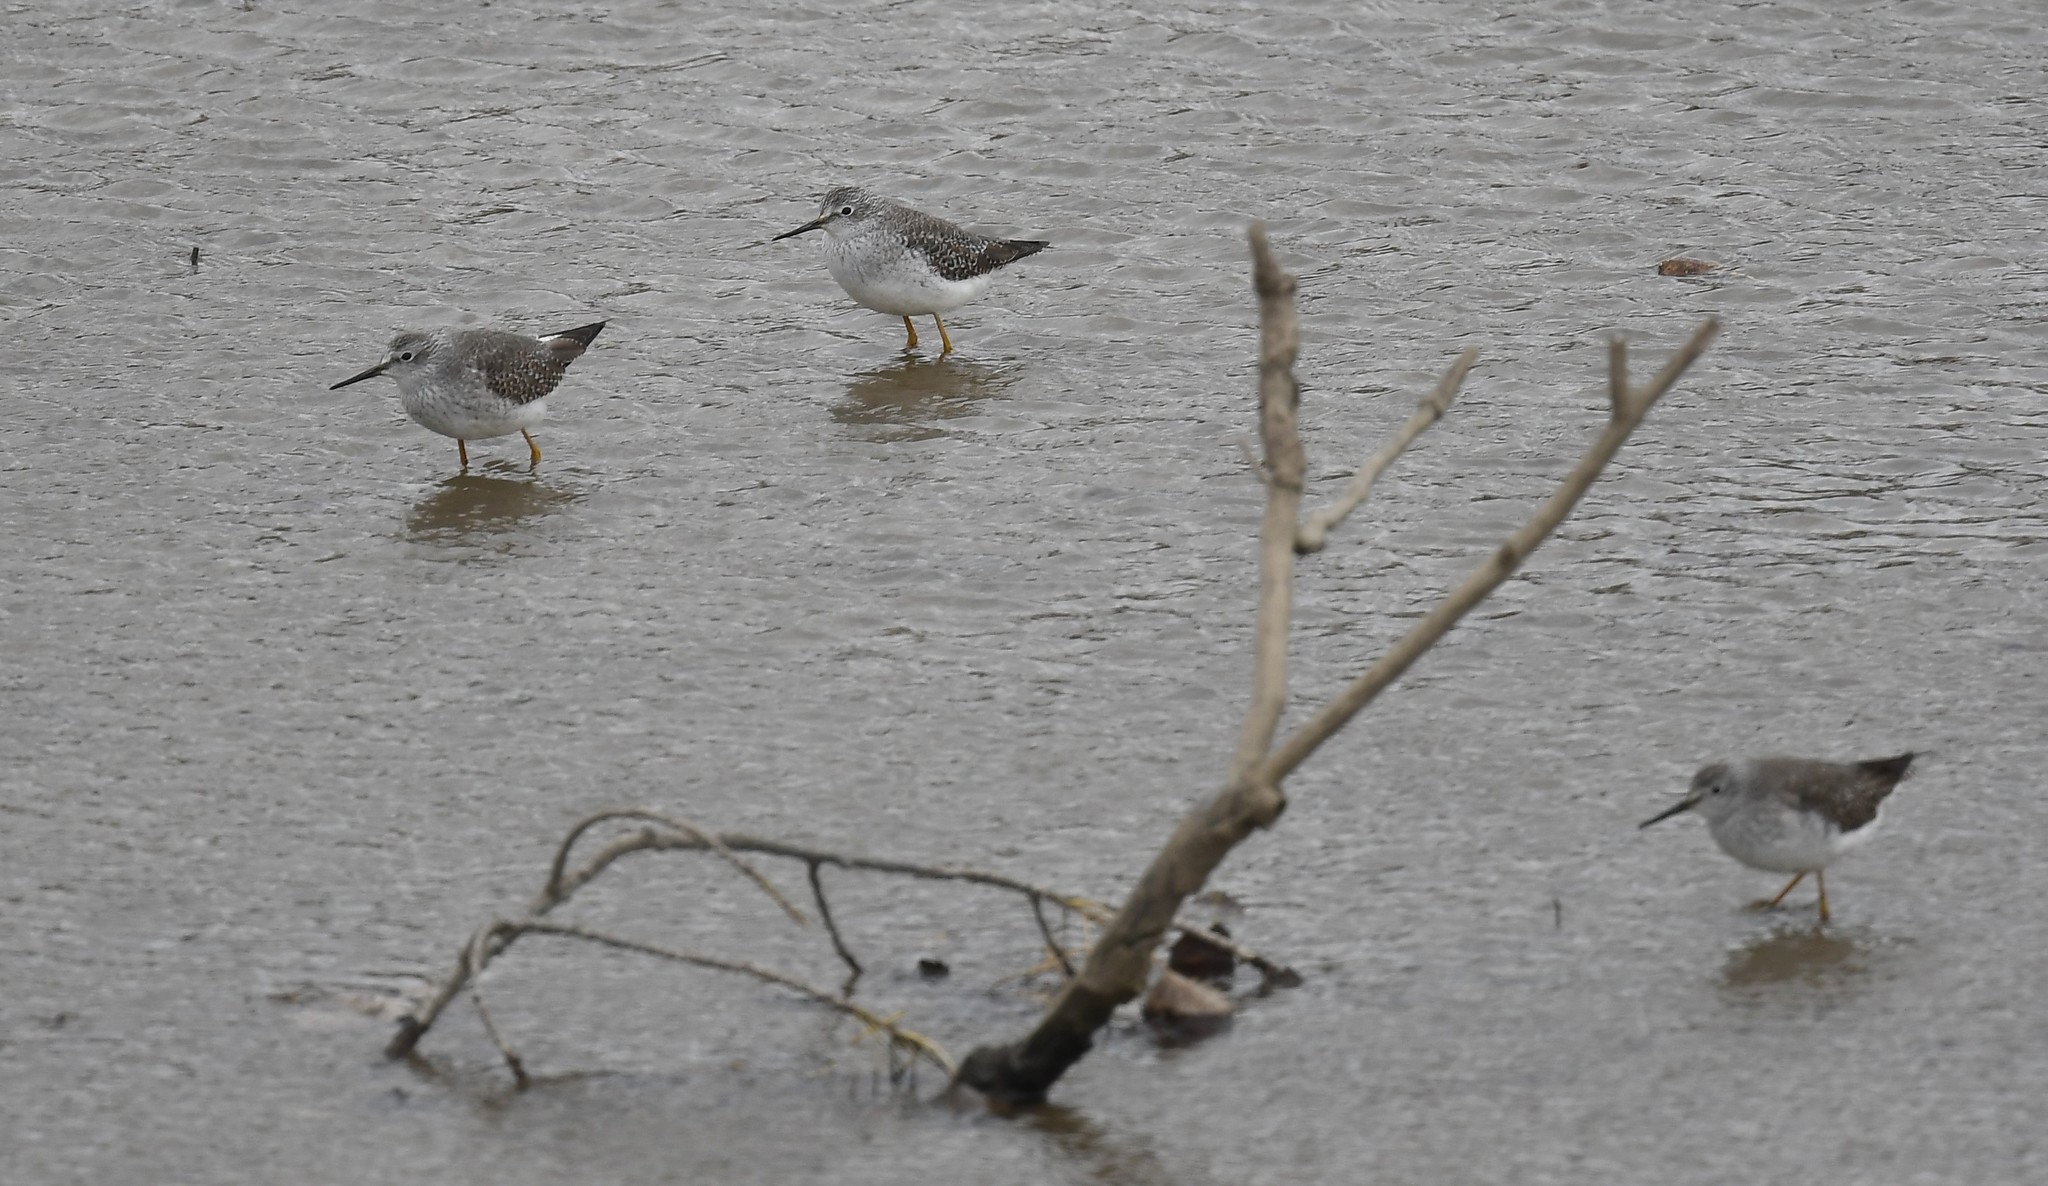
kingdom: Animalia
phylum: Chordata
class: Aves
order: Charadriiformes
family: Scolopacidae
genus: Tringa
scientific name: Tringa flavipes
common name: Lesser yellowlegs
